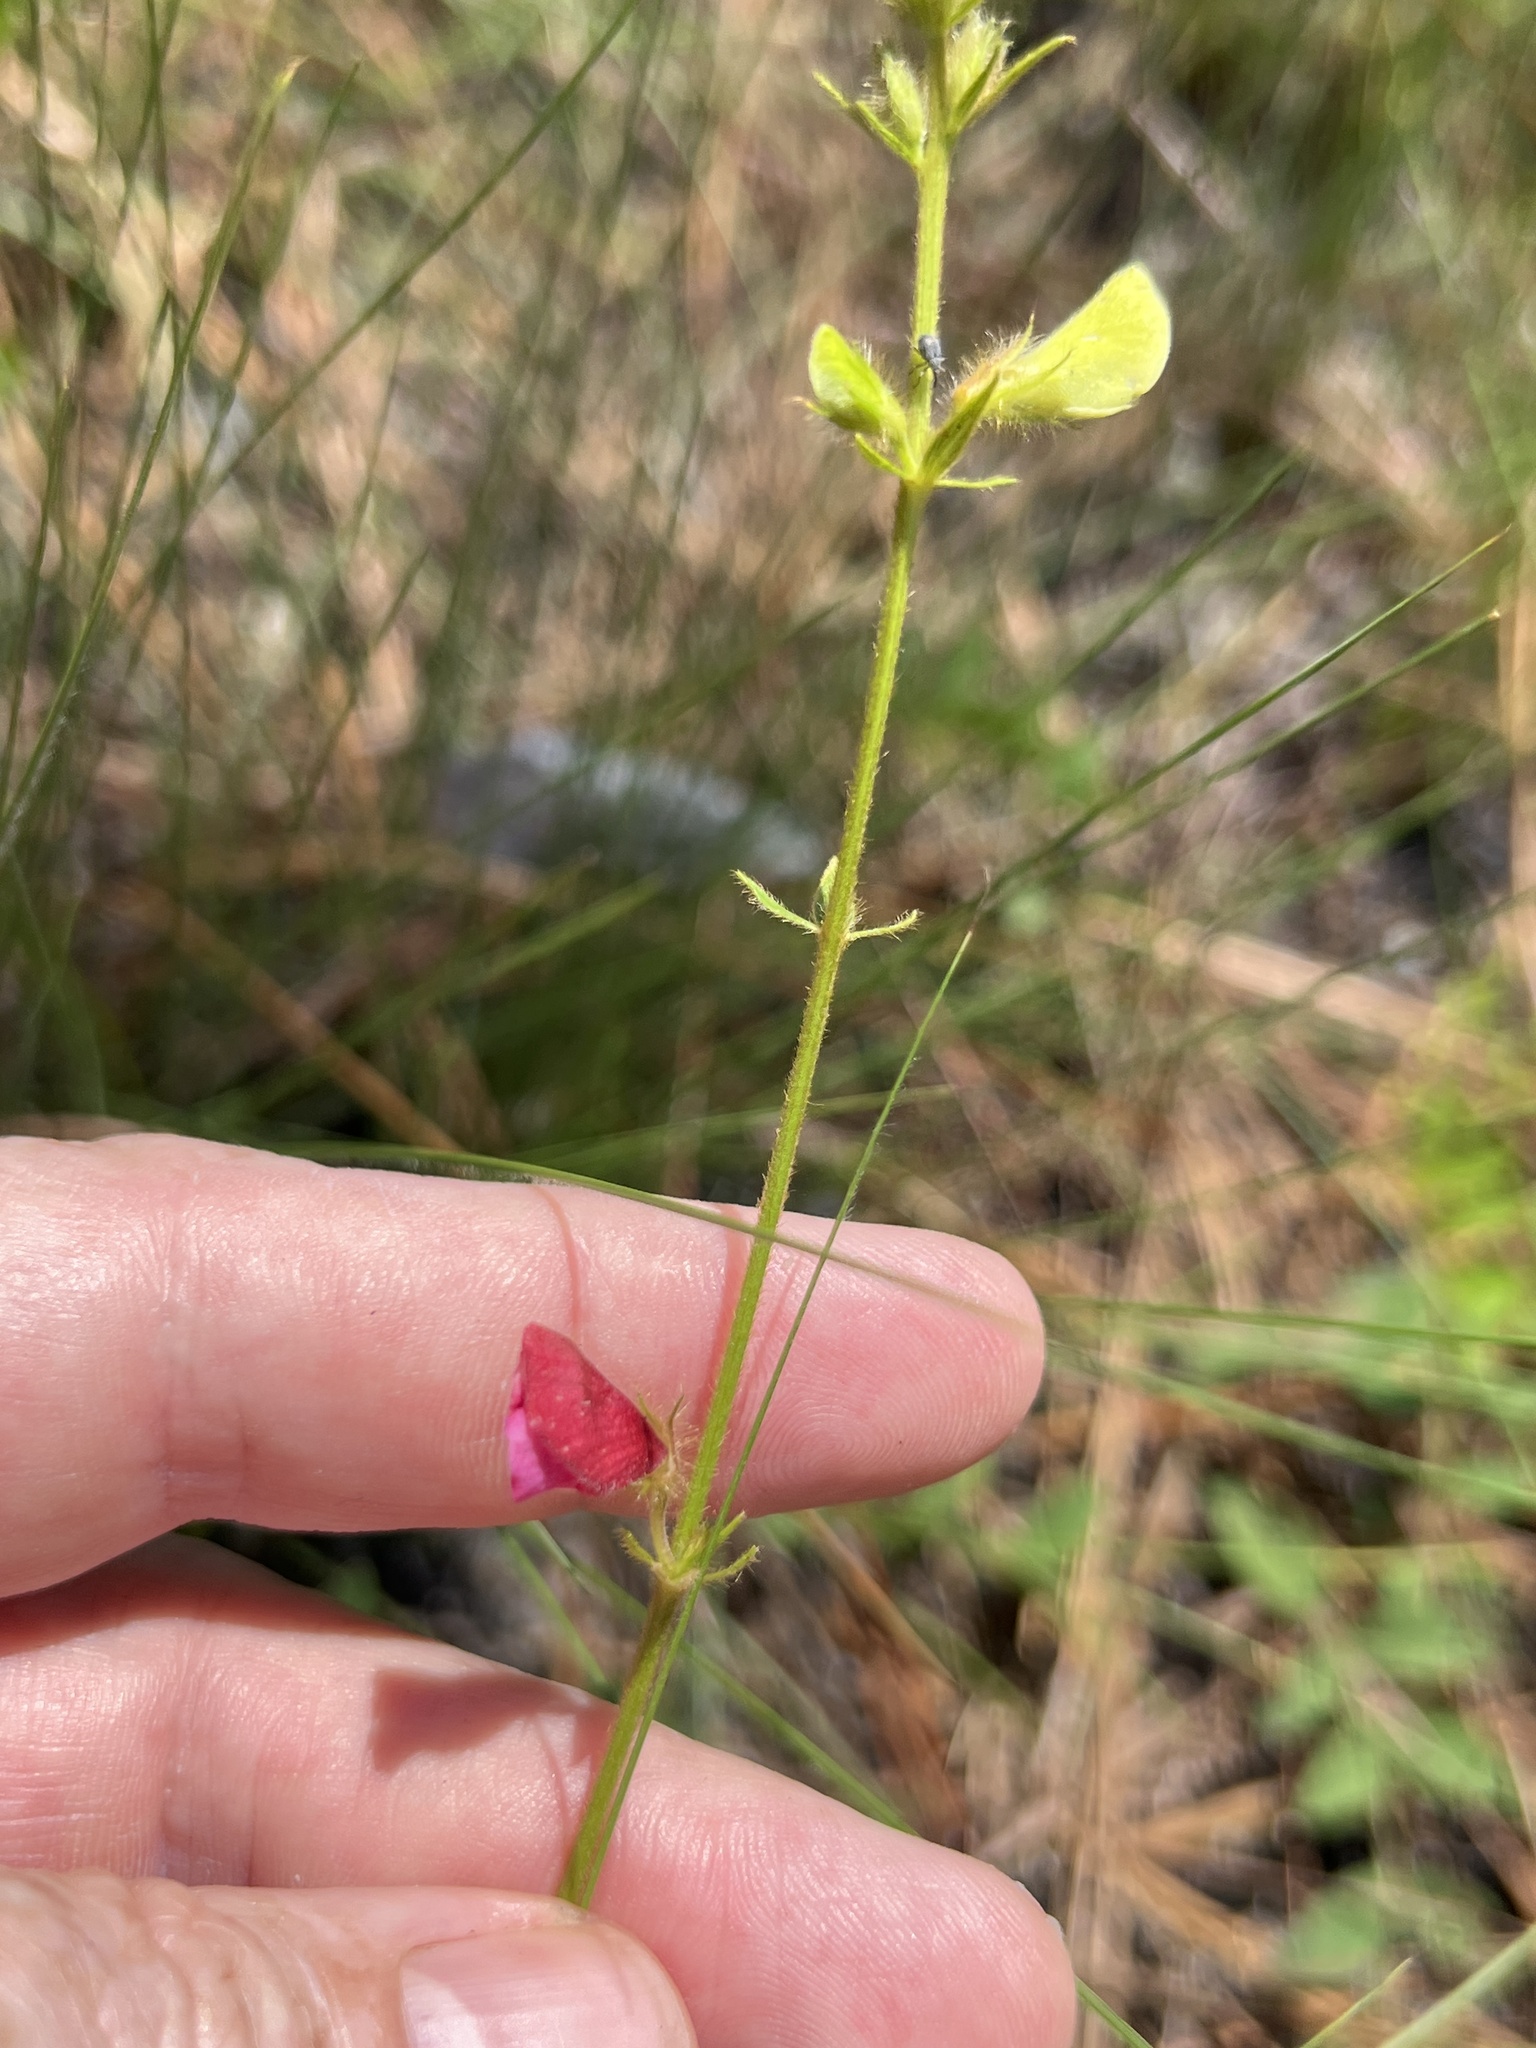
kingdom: Plantae
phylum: Tracheophyta
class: Magnoliopsida
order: Fabales
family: Fabaceae
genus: Tephrosia
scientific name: Tephrosia spicata
